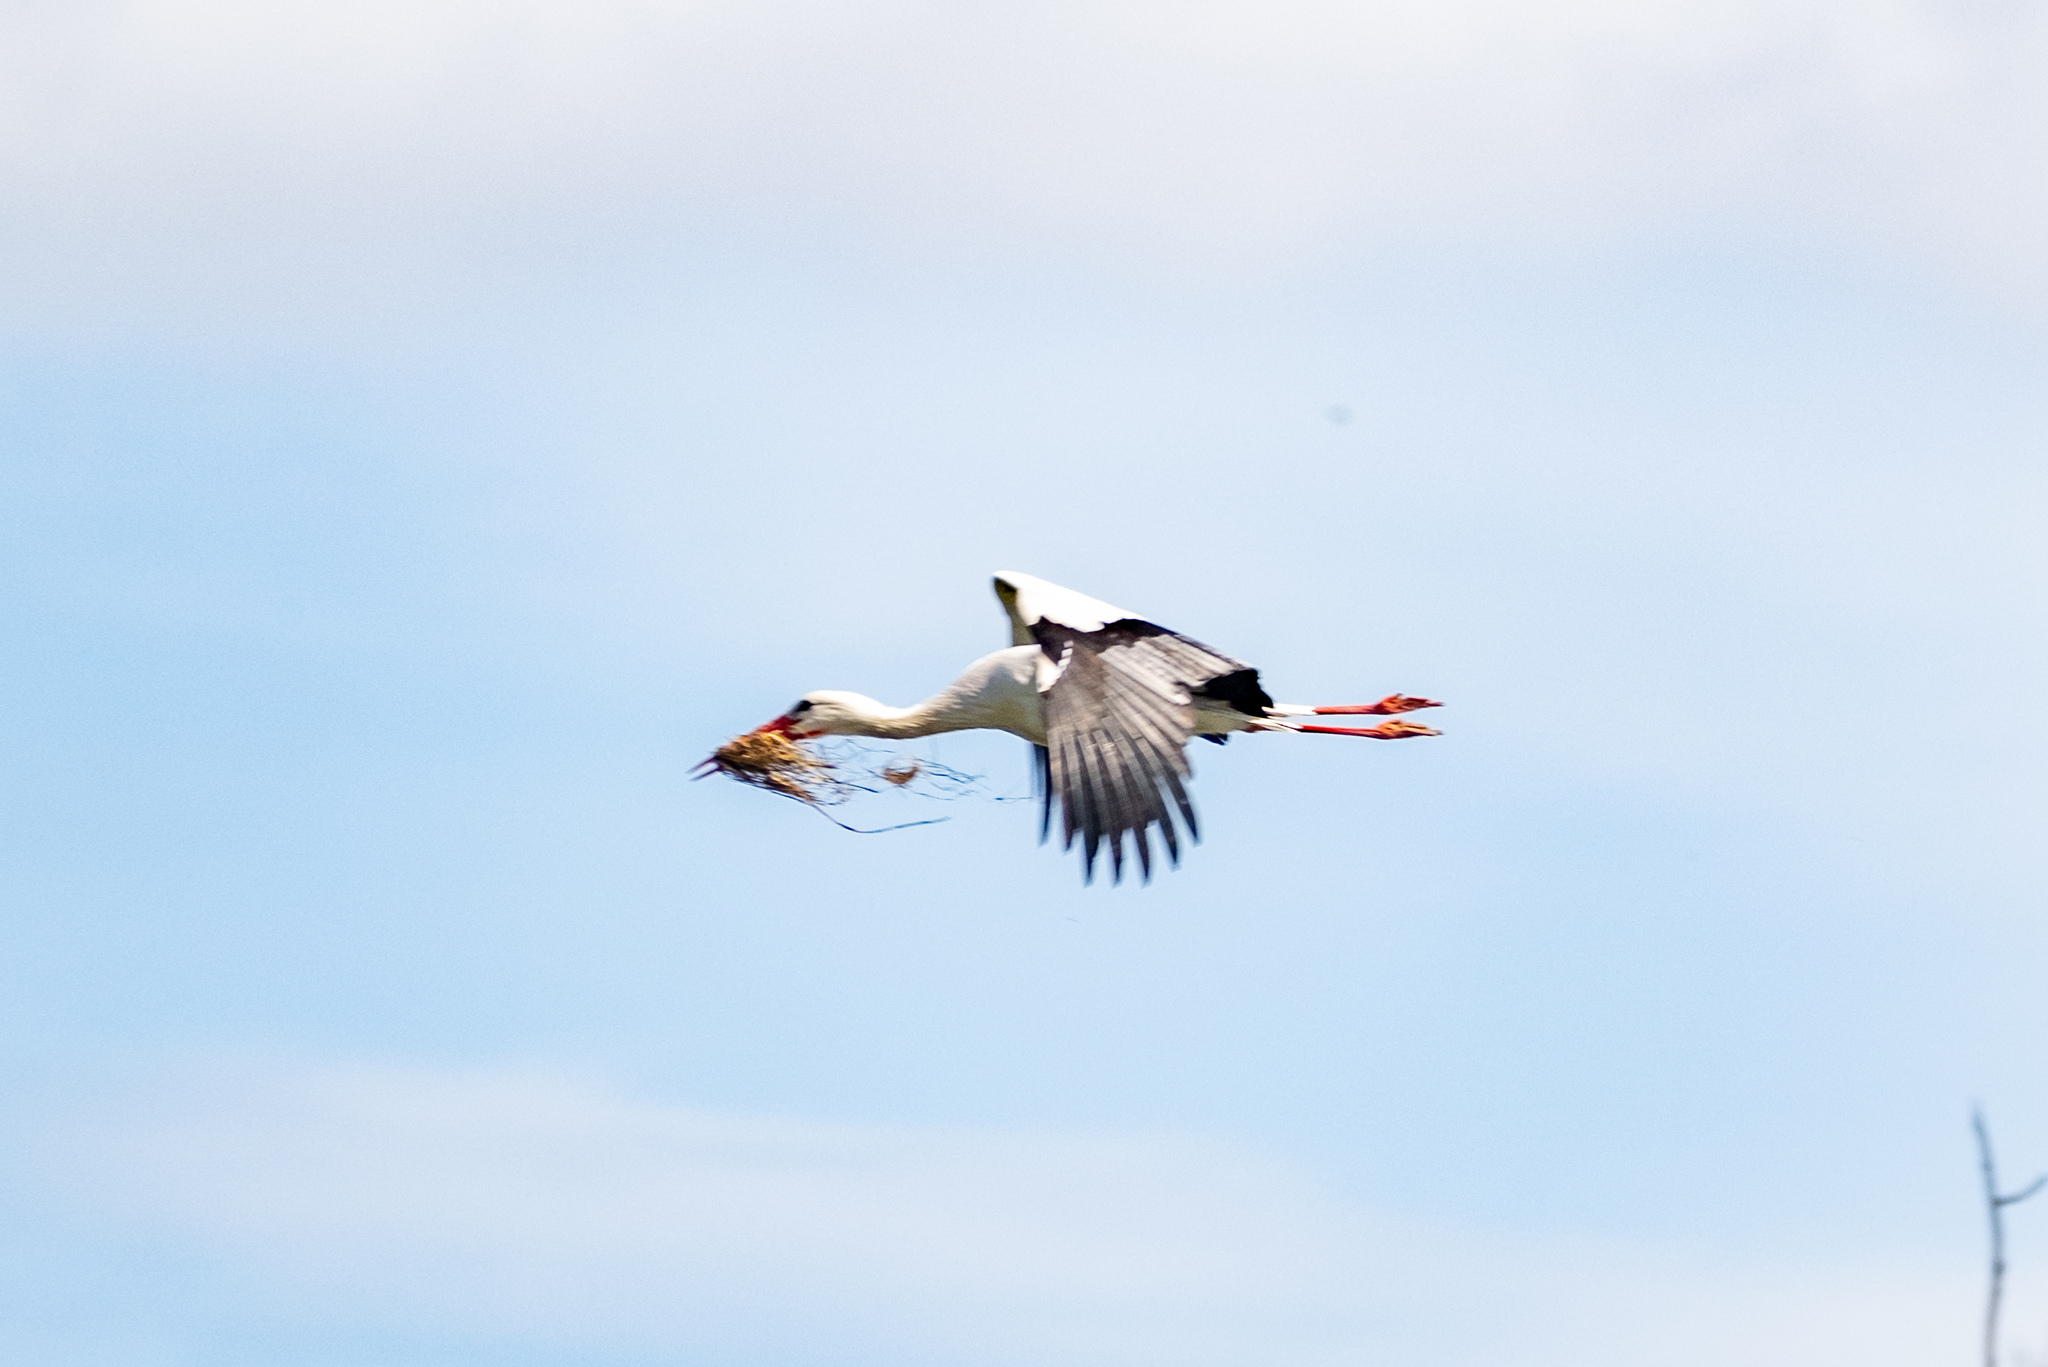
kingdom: Animalia
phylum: Chordata
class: Aves
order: Ciconiiformes
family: Ciconiidae
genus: Ciconia
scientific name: Ciconia ciconia
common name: White stork
